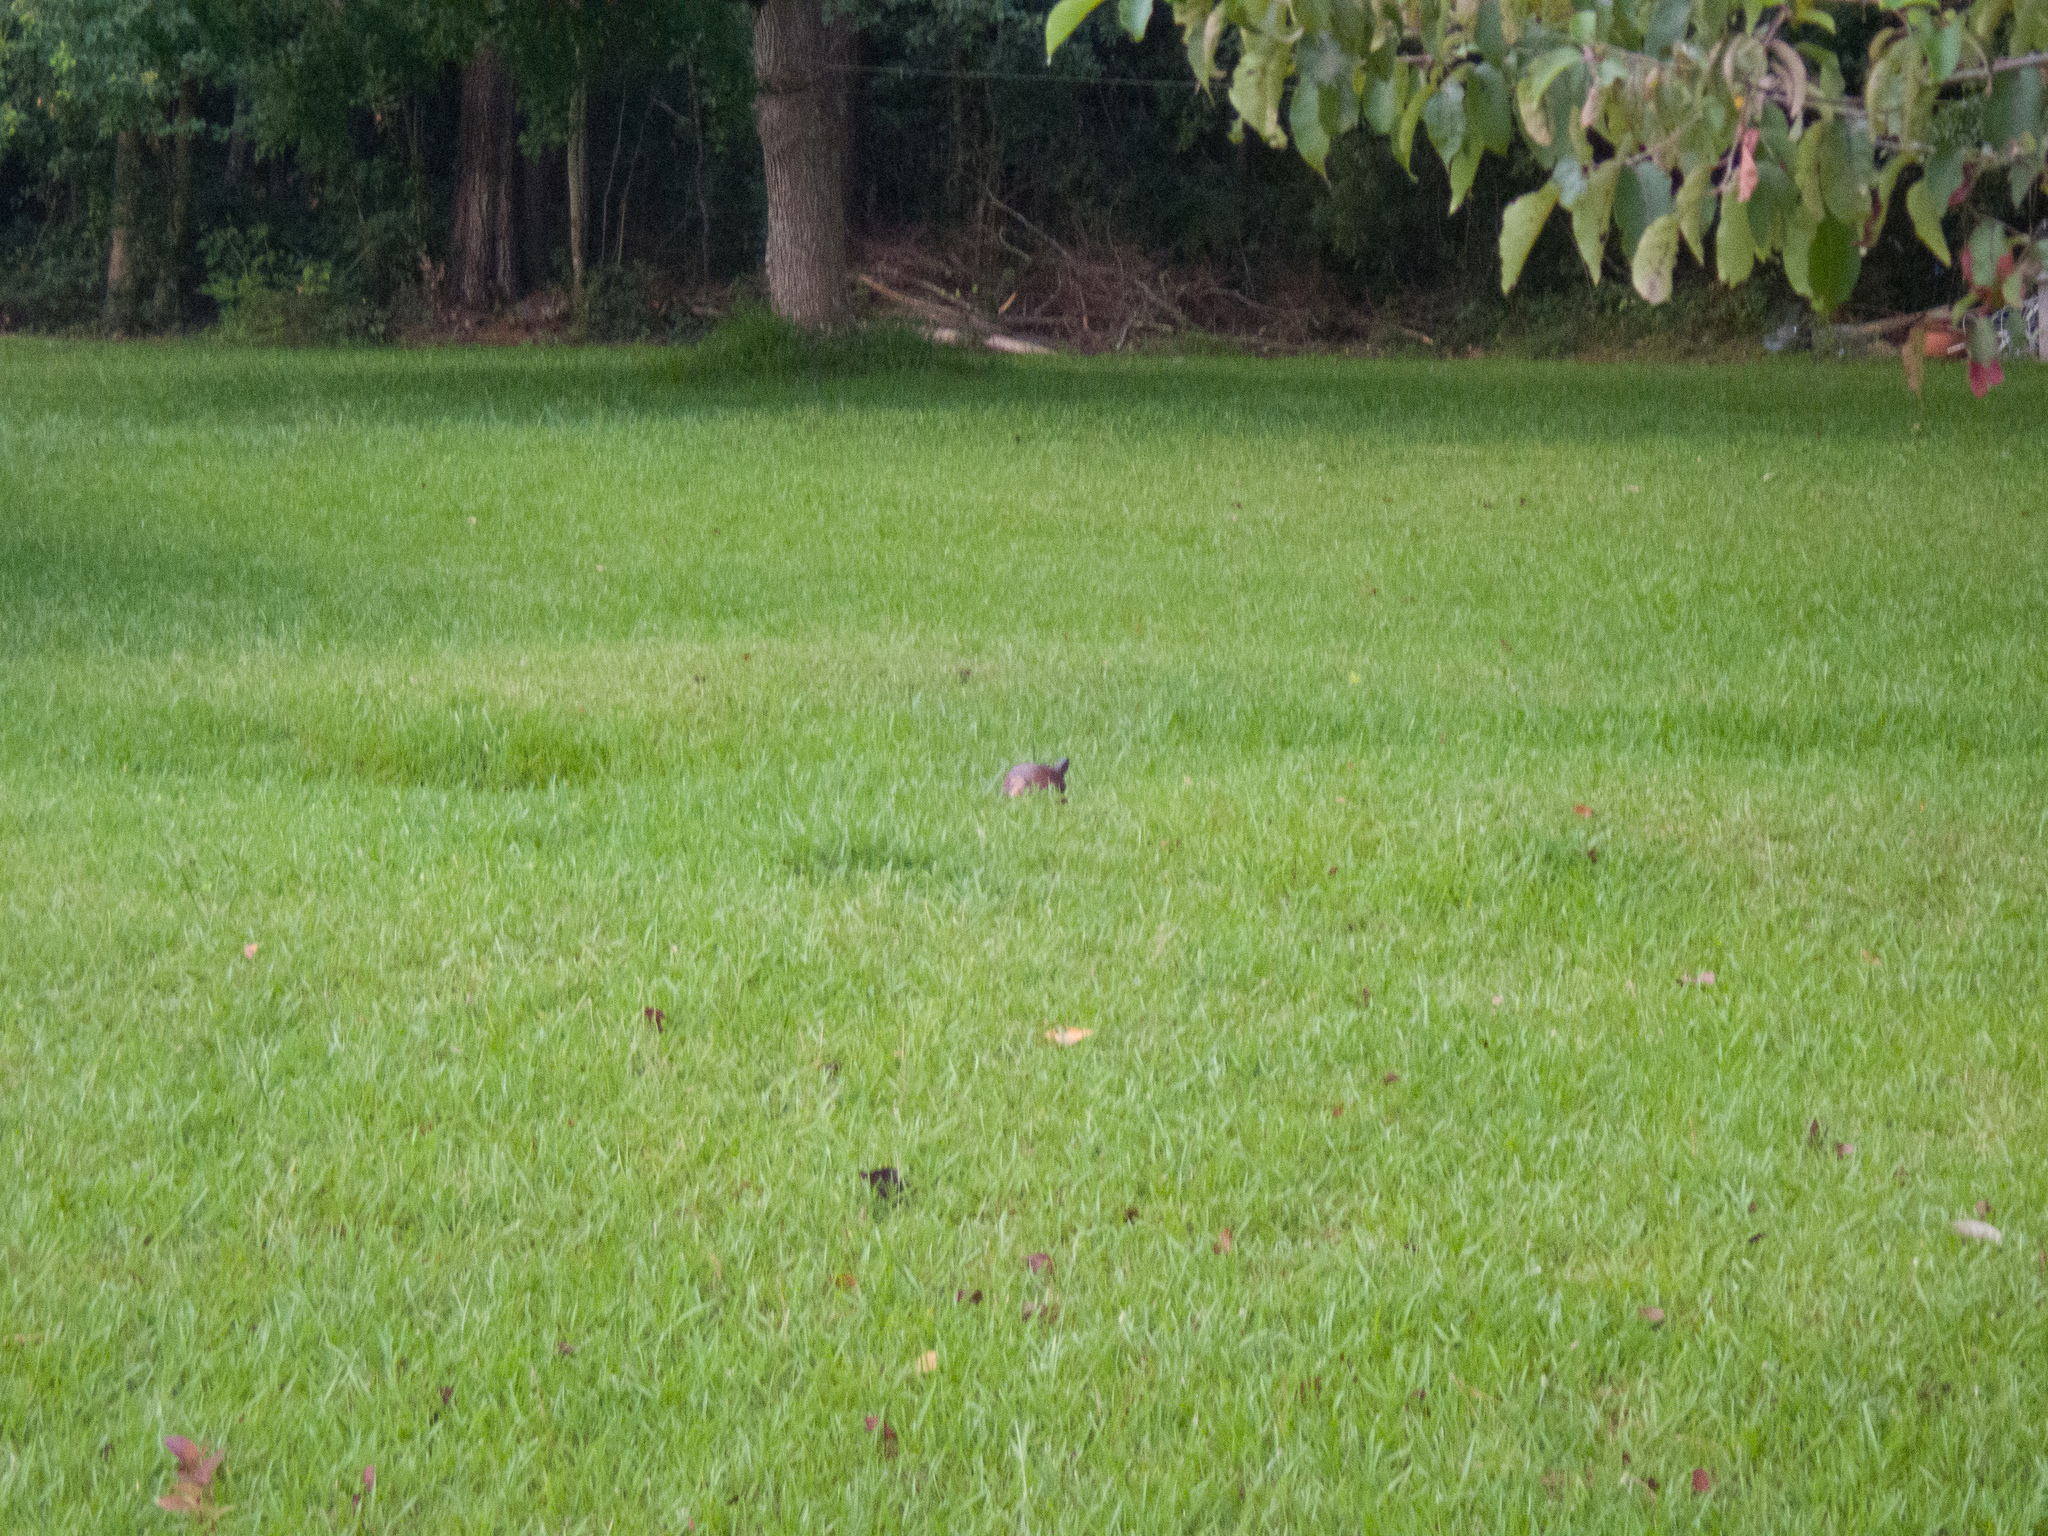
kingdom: Animalia
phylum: Chordata
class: Testudines
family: Emydidae
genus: Terrapene
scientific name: Terrapene carolina
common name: Common box turtle
